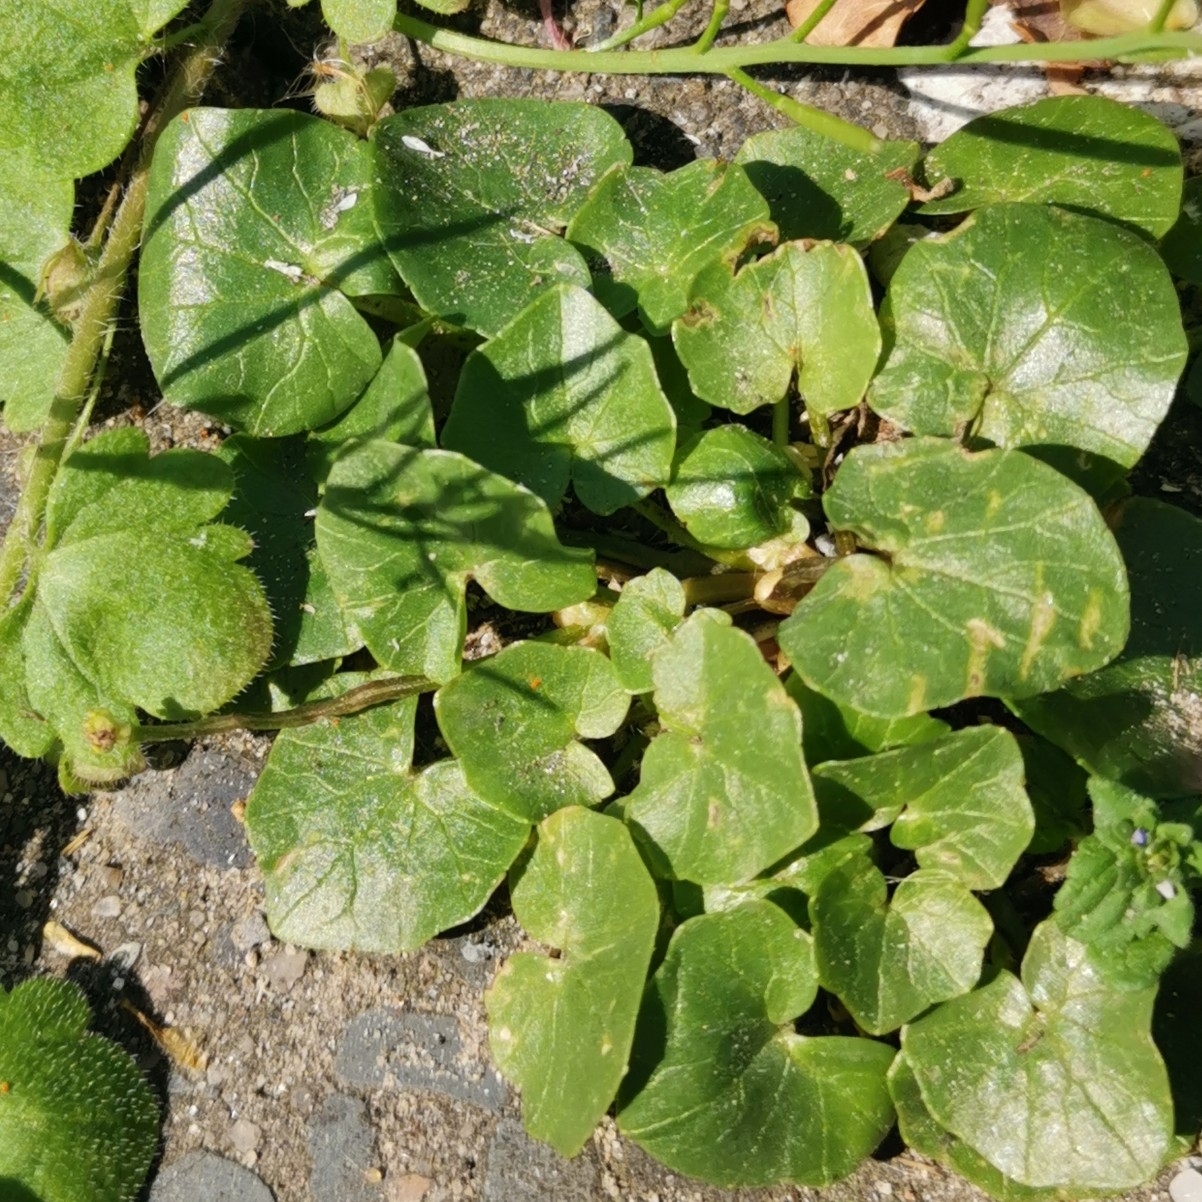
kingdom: Plantae
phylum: Tracheophyta
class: Magnoliopsida
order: Ranunculales
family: Ranunculaceae
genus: Ficaria
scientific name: Ficaria verna
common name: Lesser celandine
